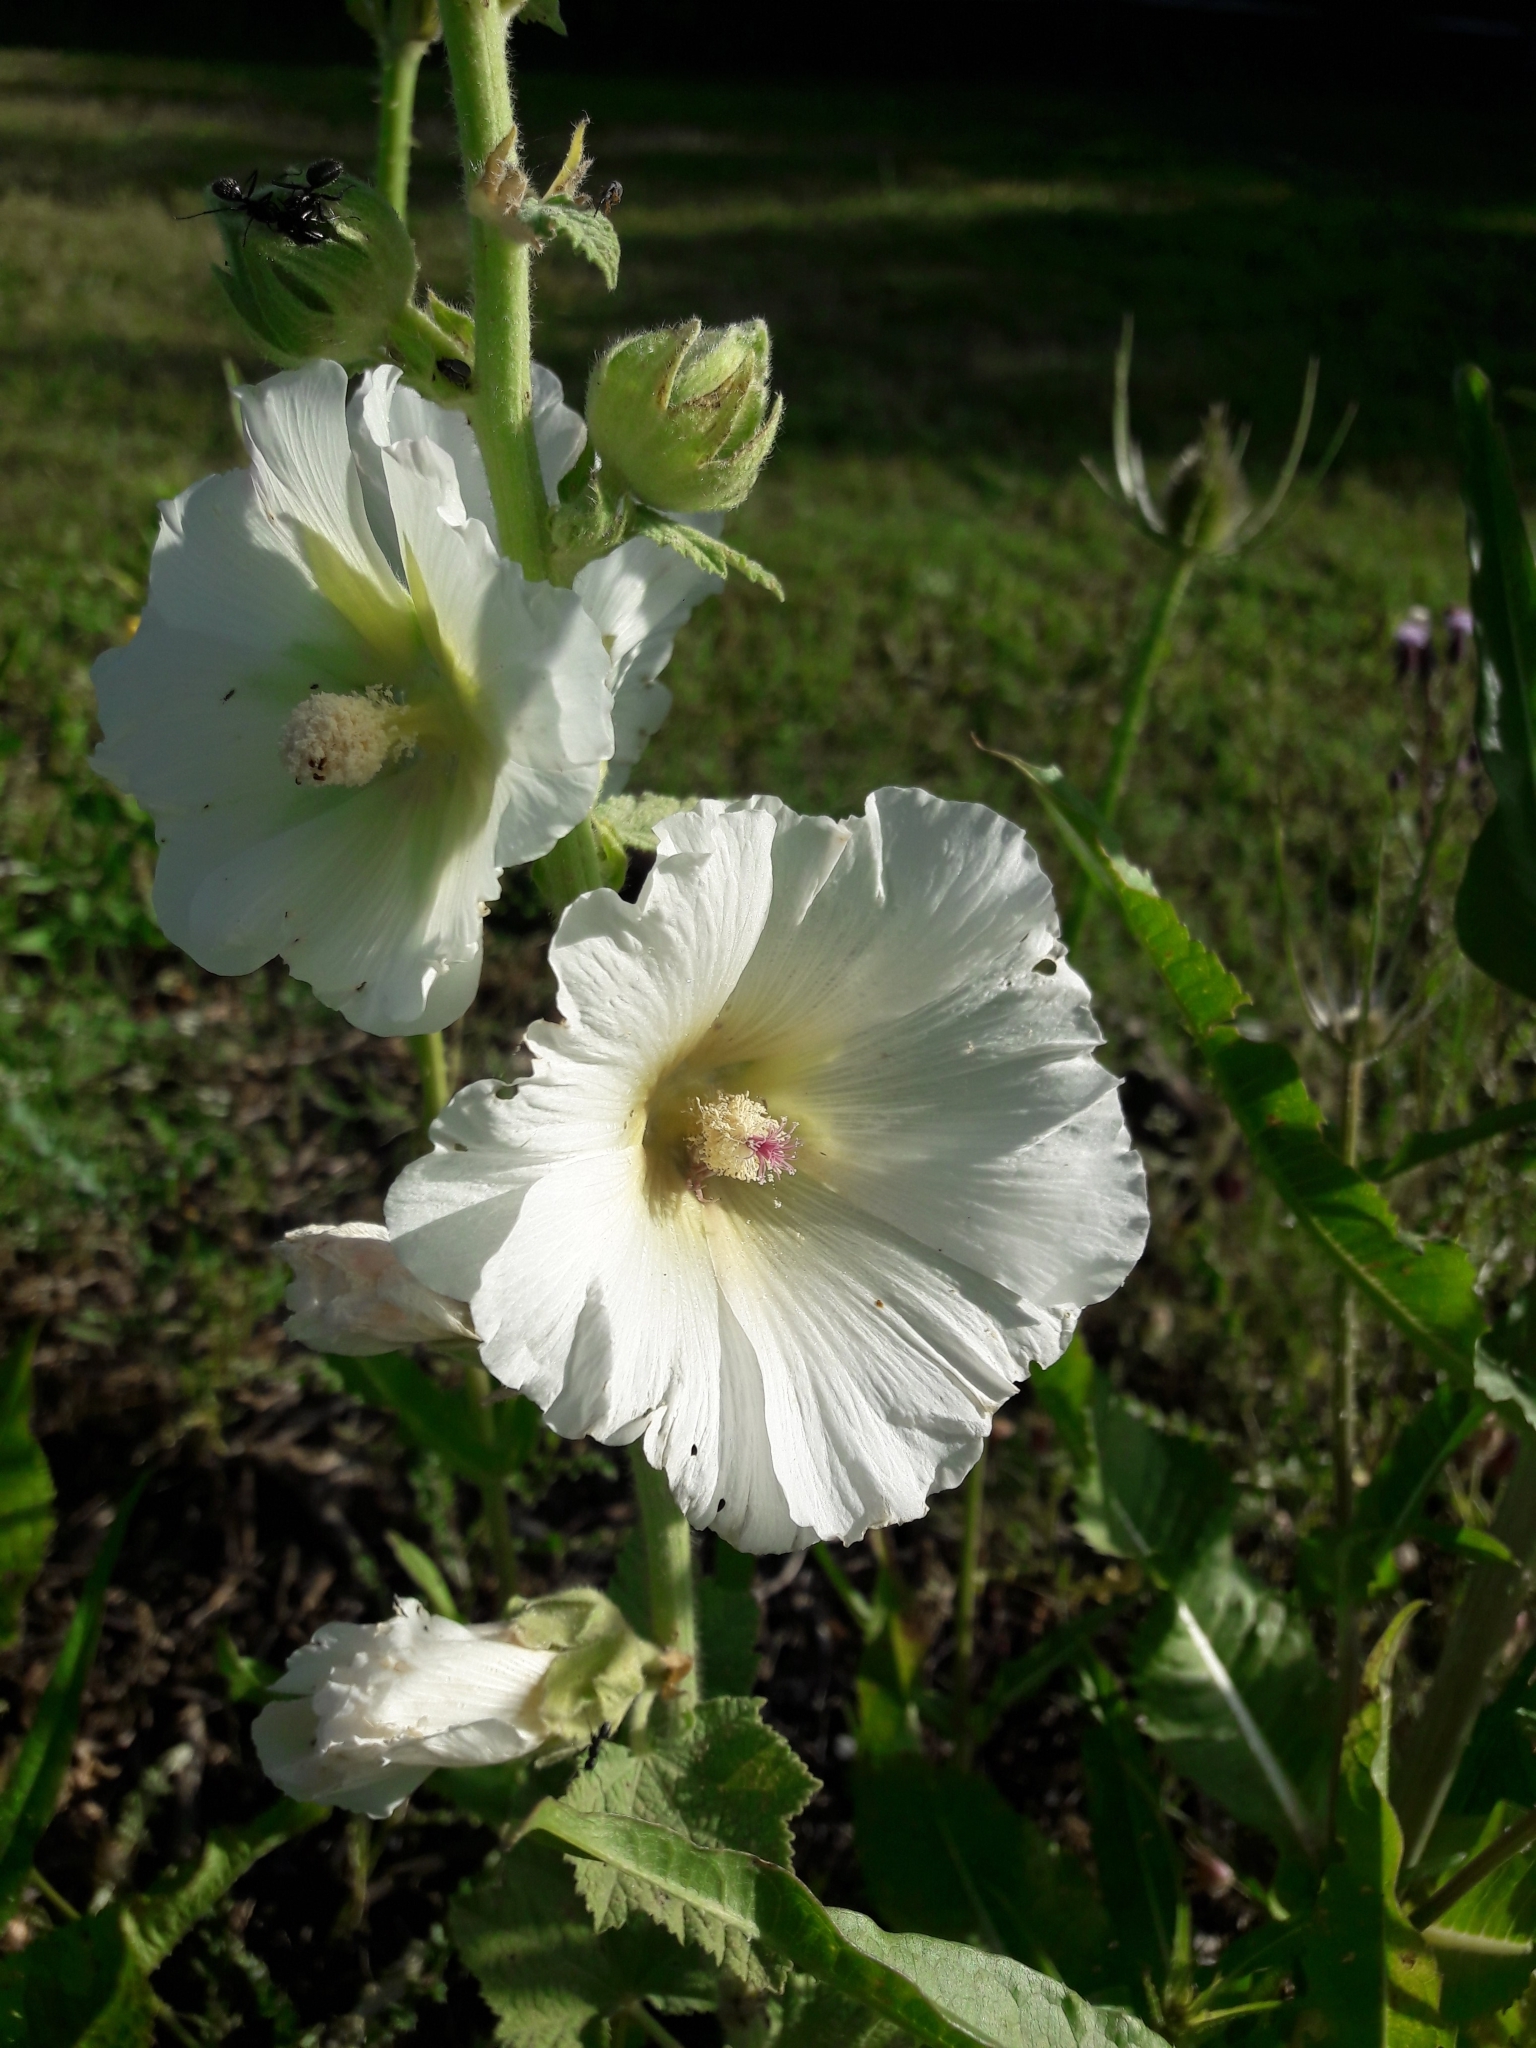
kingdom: Plantae
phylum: Tracheophyta
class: Magnoliopsida
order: Malvales
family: Malvaceae
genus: Alcea
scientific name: Alcea rosea
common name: Hollyhock
